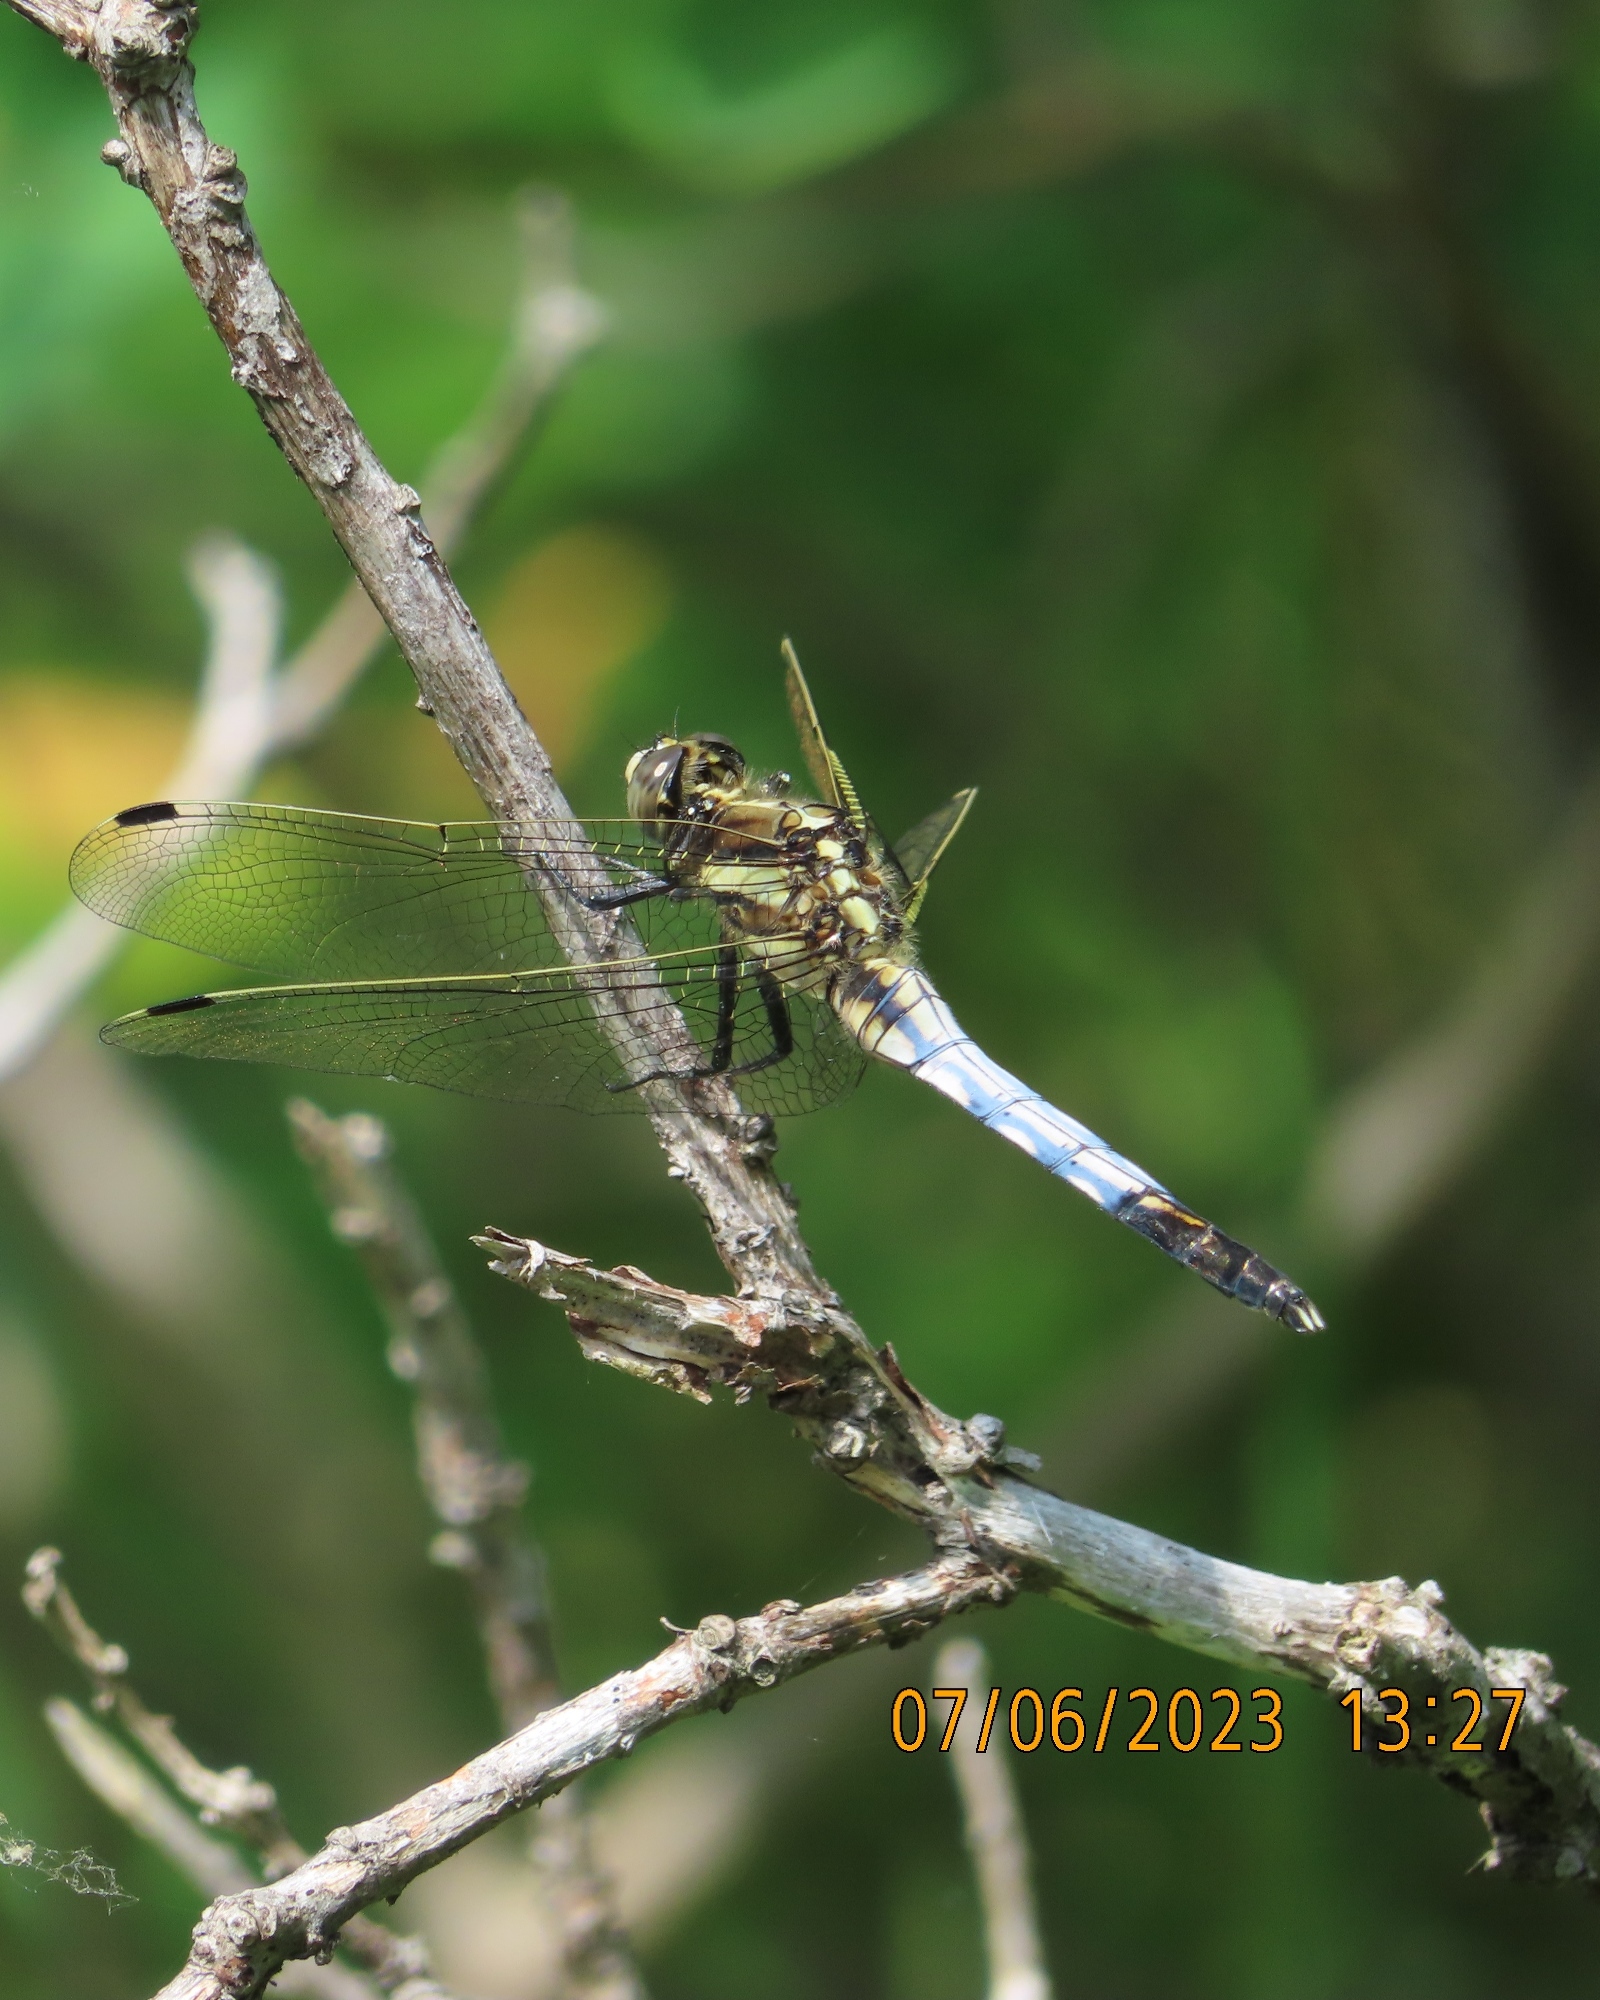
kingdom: Animalia
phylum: Arthropoda
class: Insecta
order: Odonata
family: Libellulidae
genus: Orthetrum
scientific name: Orthetrum albistylum
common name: White-tailed skimmer
